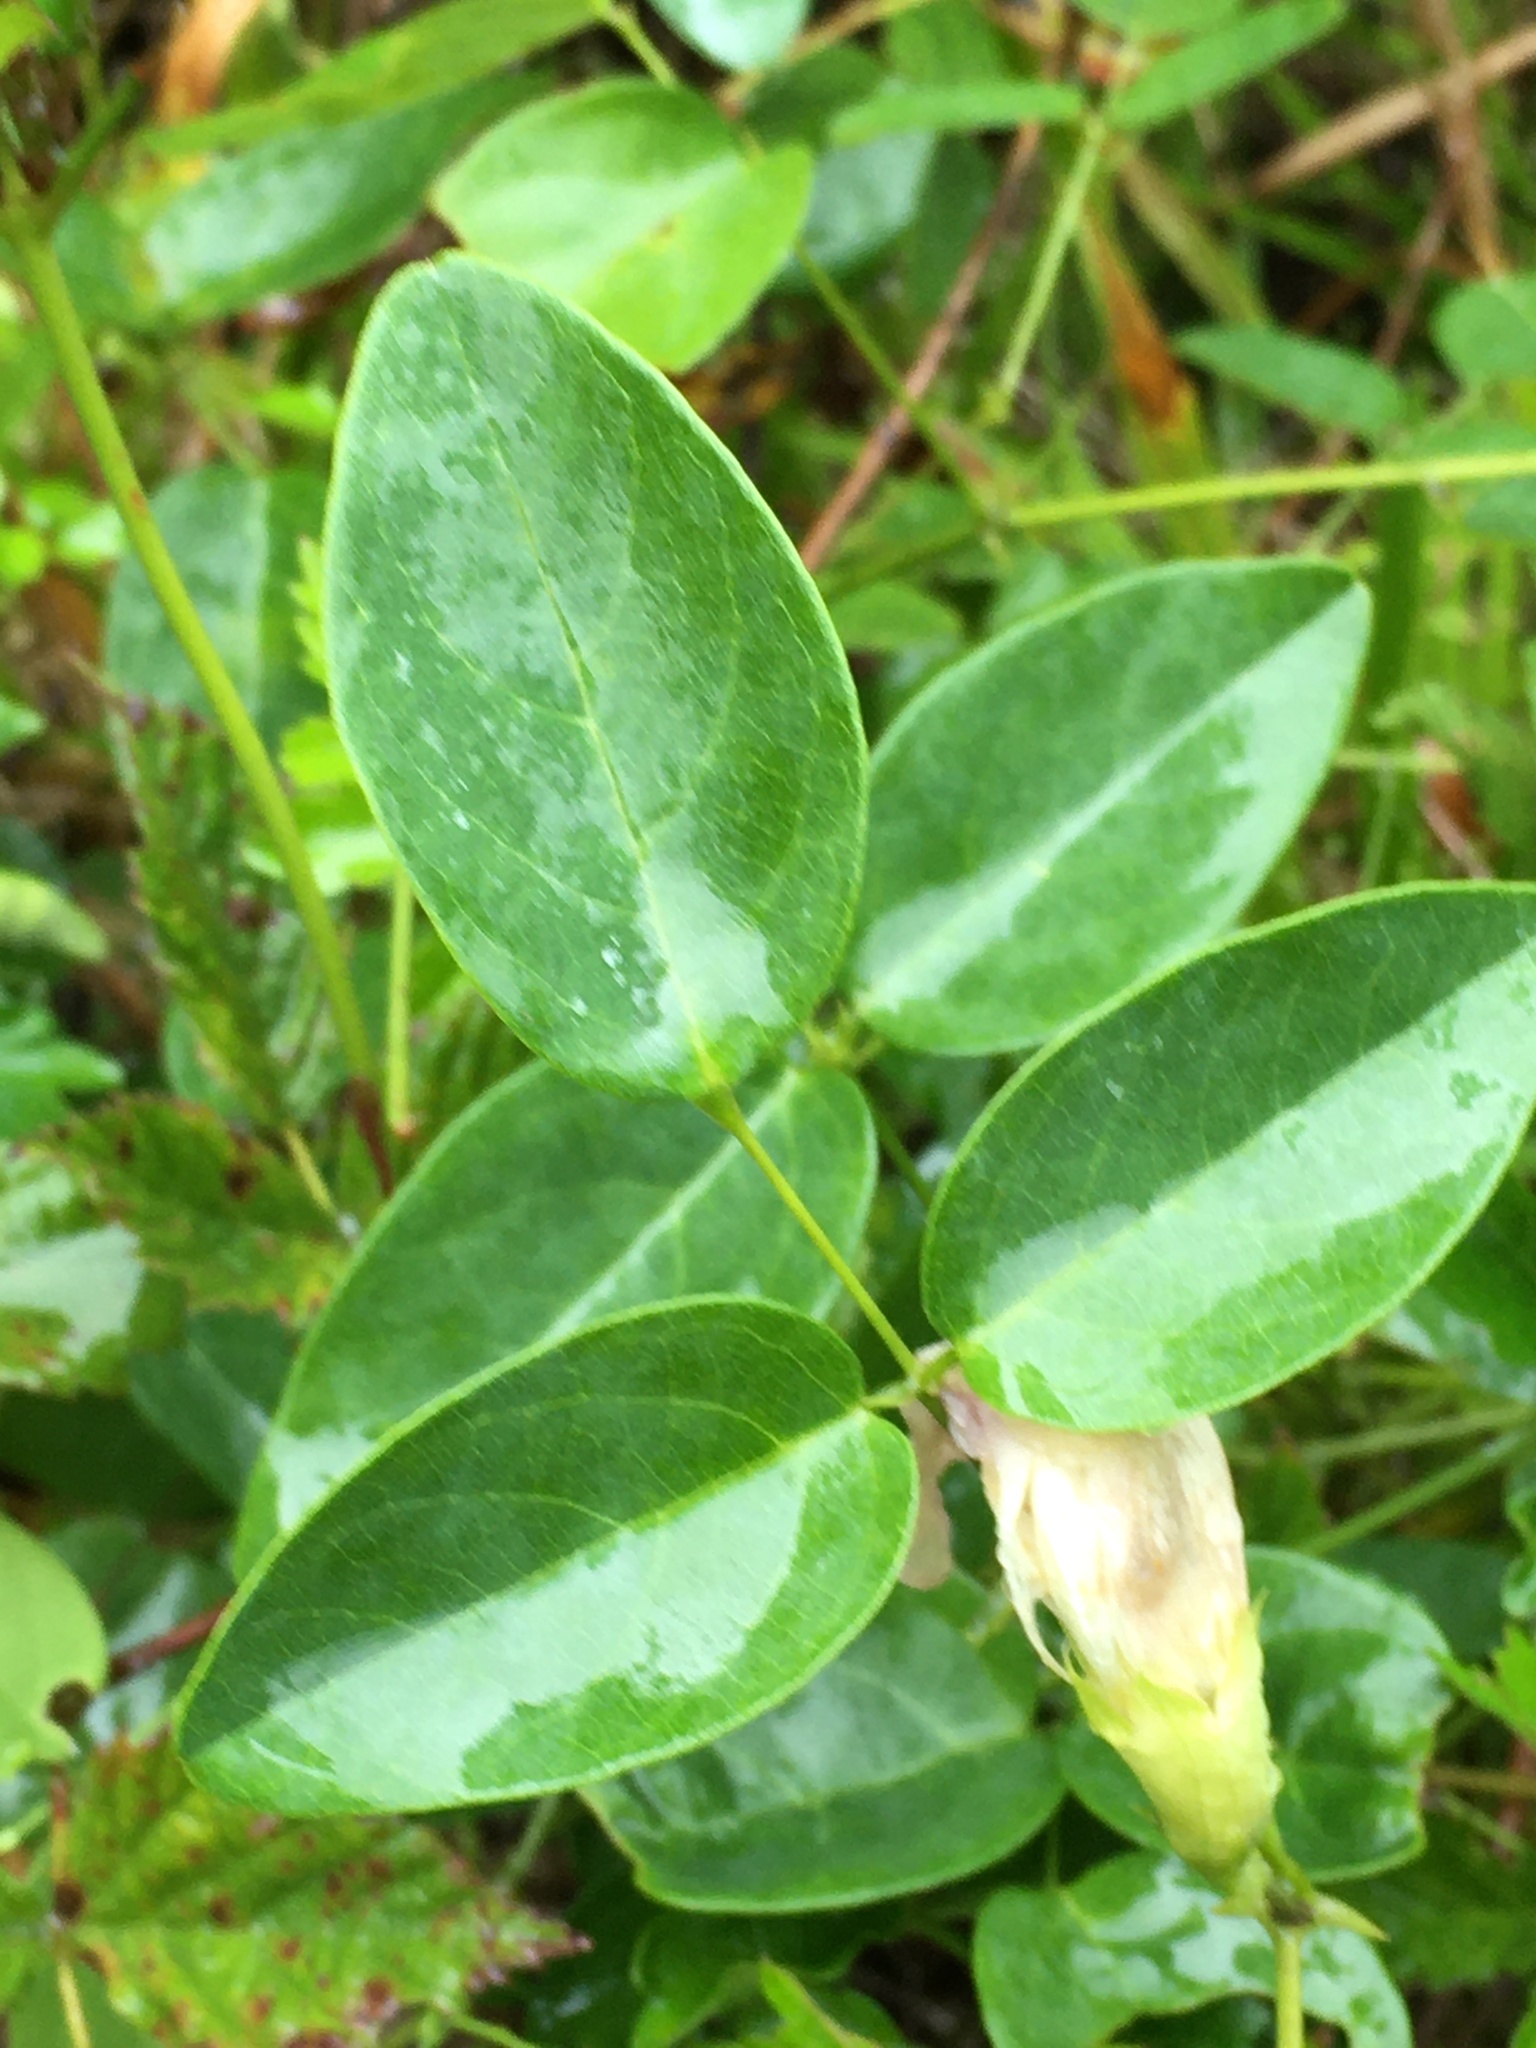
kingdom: Plantae
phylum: Tracheophyta
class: Magnoliopsida
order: Fabales
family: Fabaceae
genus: Clitoria
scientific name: Clitoria mariana
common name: Butterfly-pea
